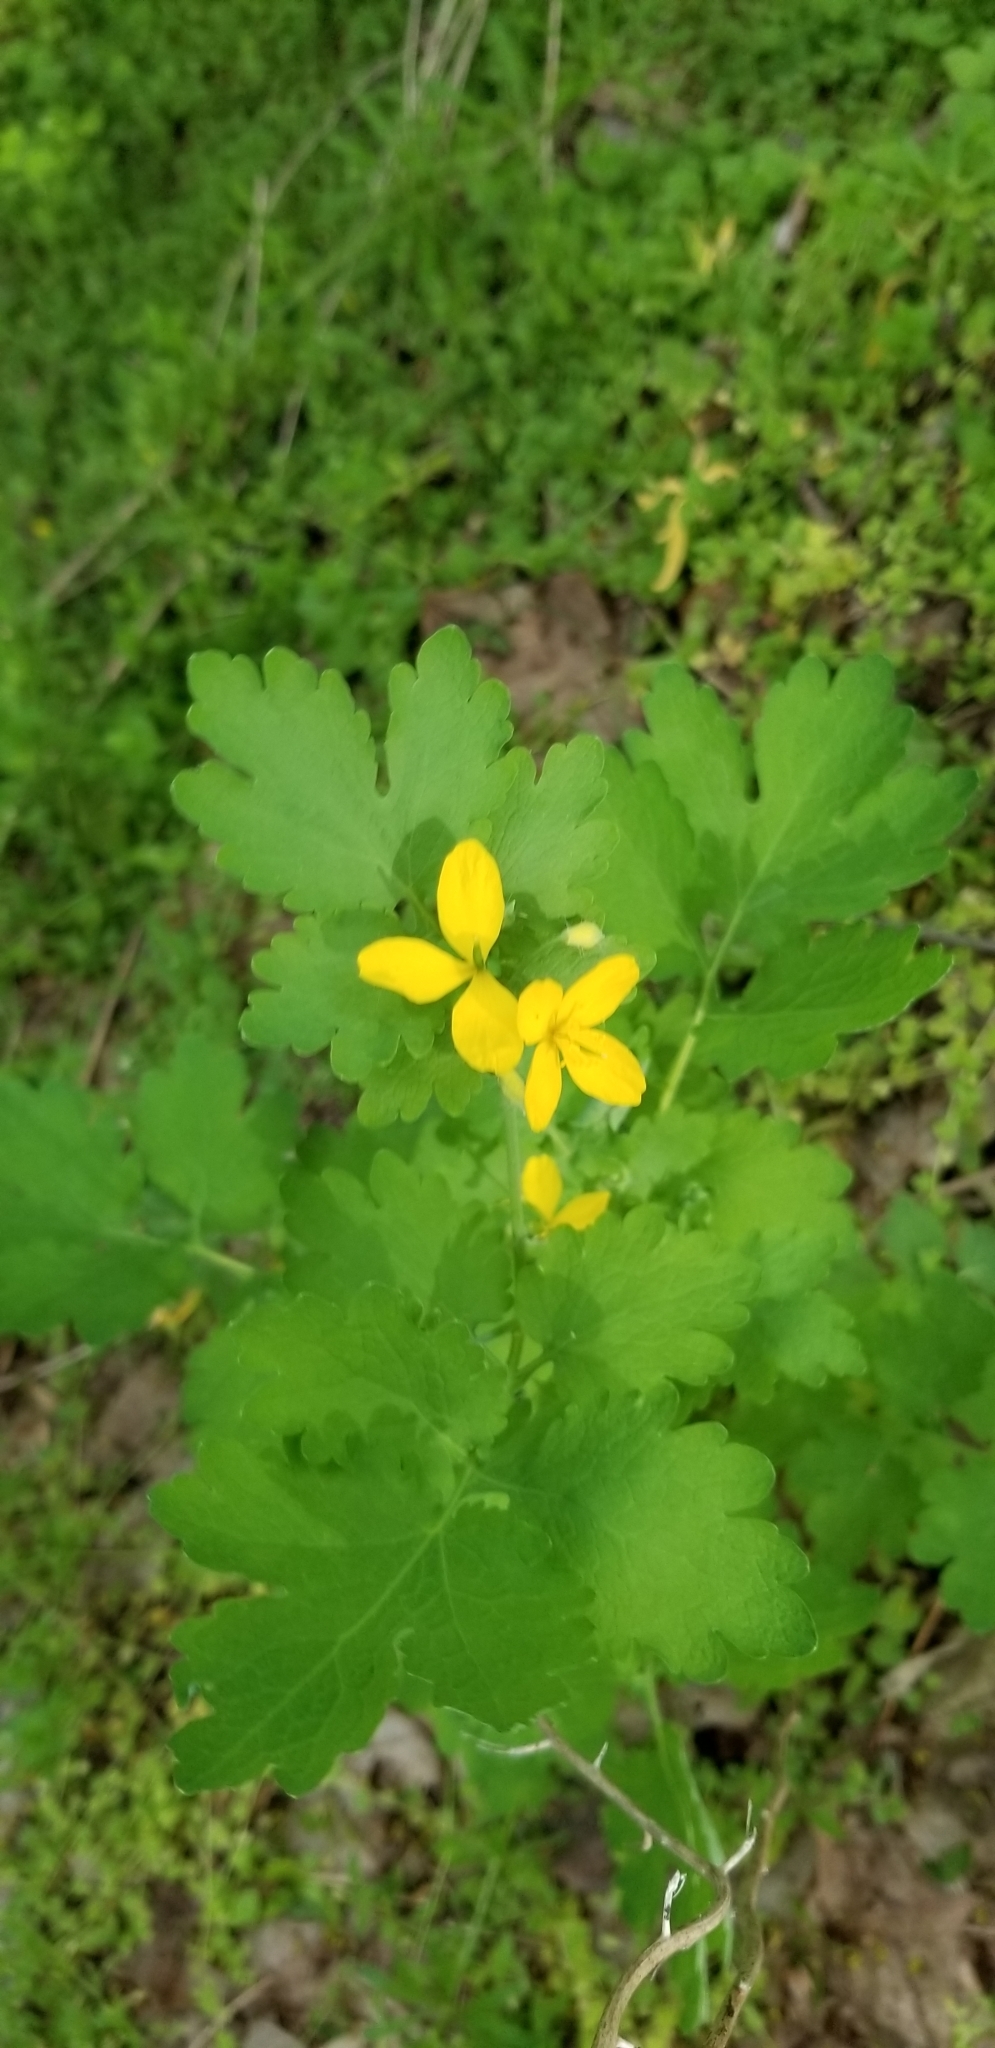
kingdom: Plantae
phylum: Tracheophyta
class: Magnoliopsida
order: Ranunculales
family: Papaveraceae
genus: Chelidonium
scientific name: Chelidonium majus
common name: Greater celandine
